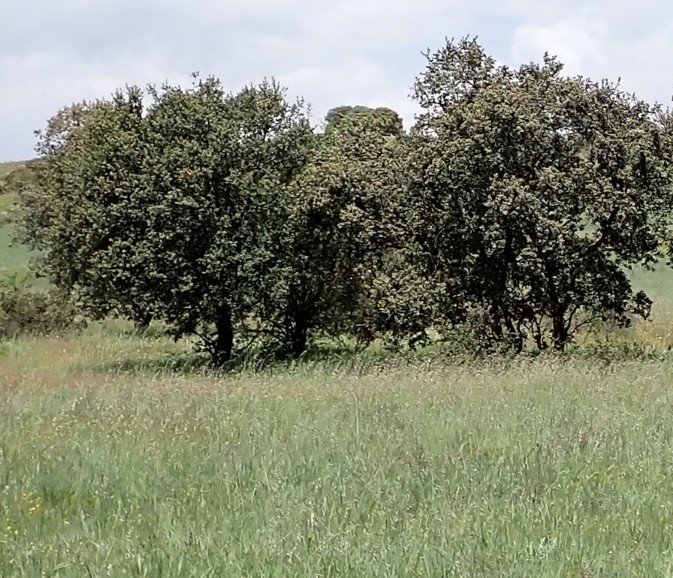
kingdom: Plantae
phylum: Tracheophyta
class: Magnoliopsida
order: Fagales
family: Fagaceae
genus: Quercus
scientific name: Quercus rotundifolia
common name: Holm oak
